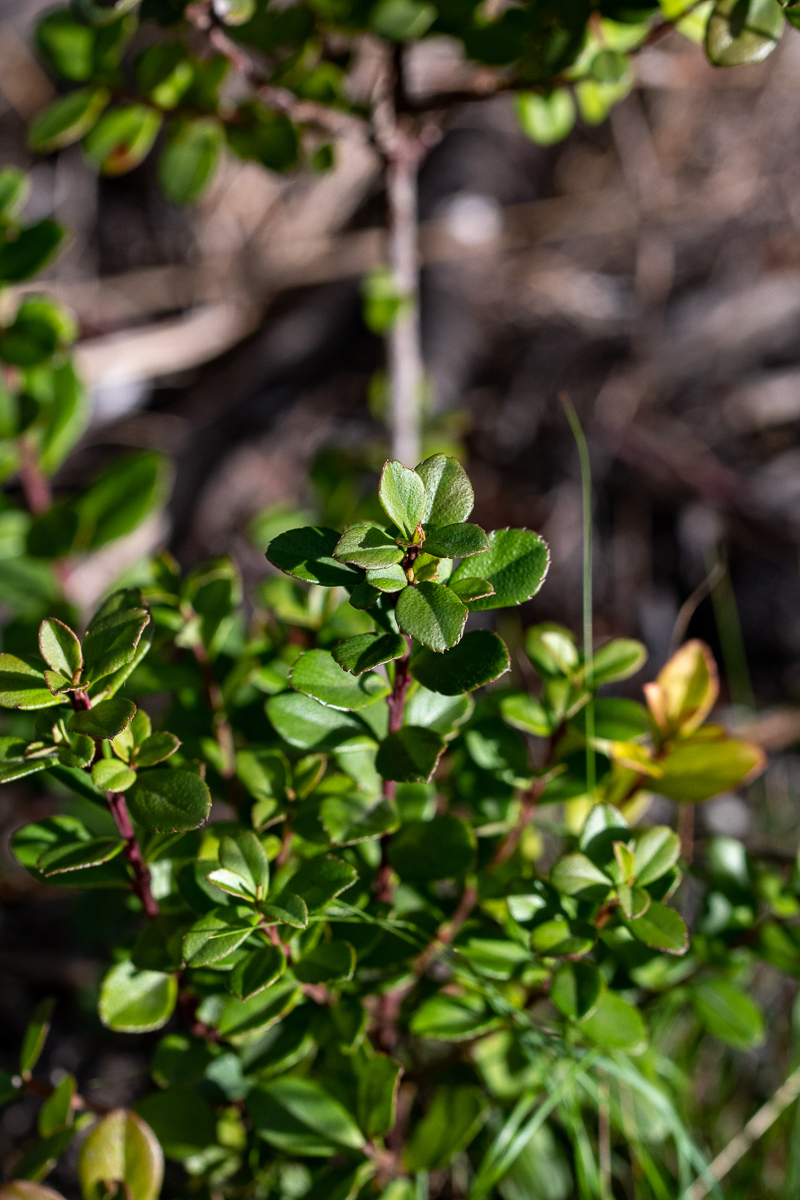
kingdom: Plantae
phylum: Tracheophyta
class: Magnoliopsida
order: Ericales
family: Primulaceae
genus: Myrsine
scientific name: Myrsine africana
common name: African-boxwood
